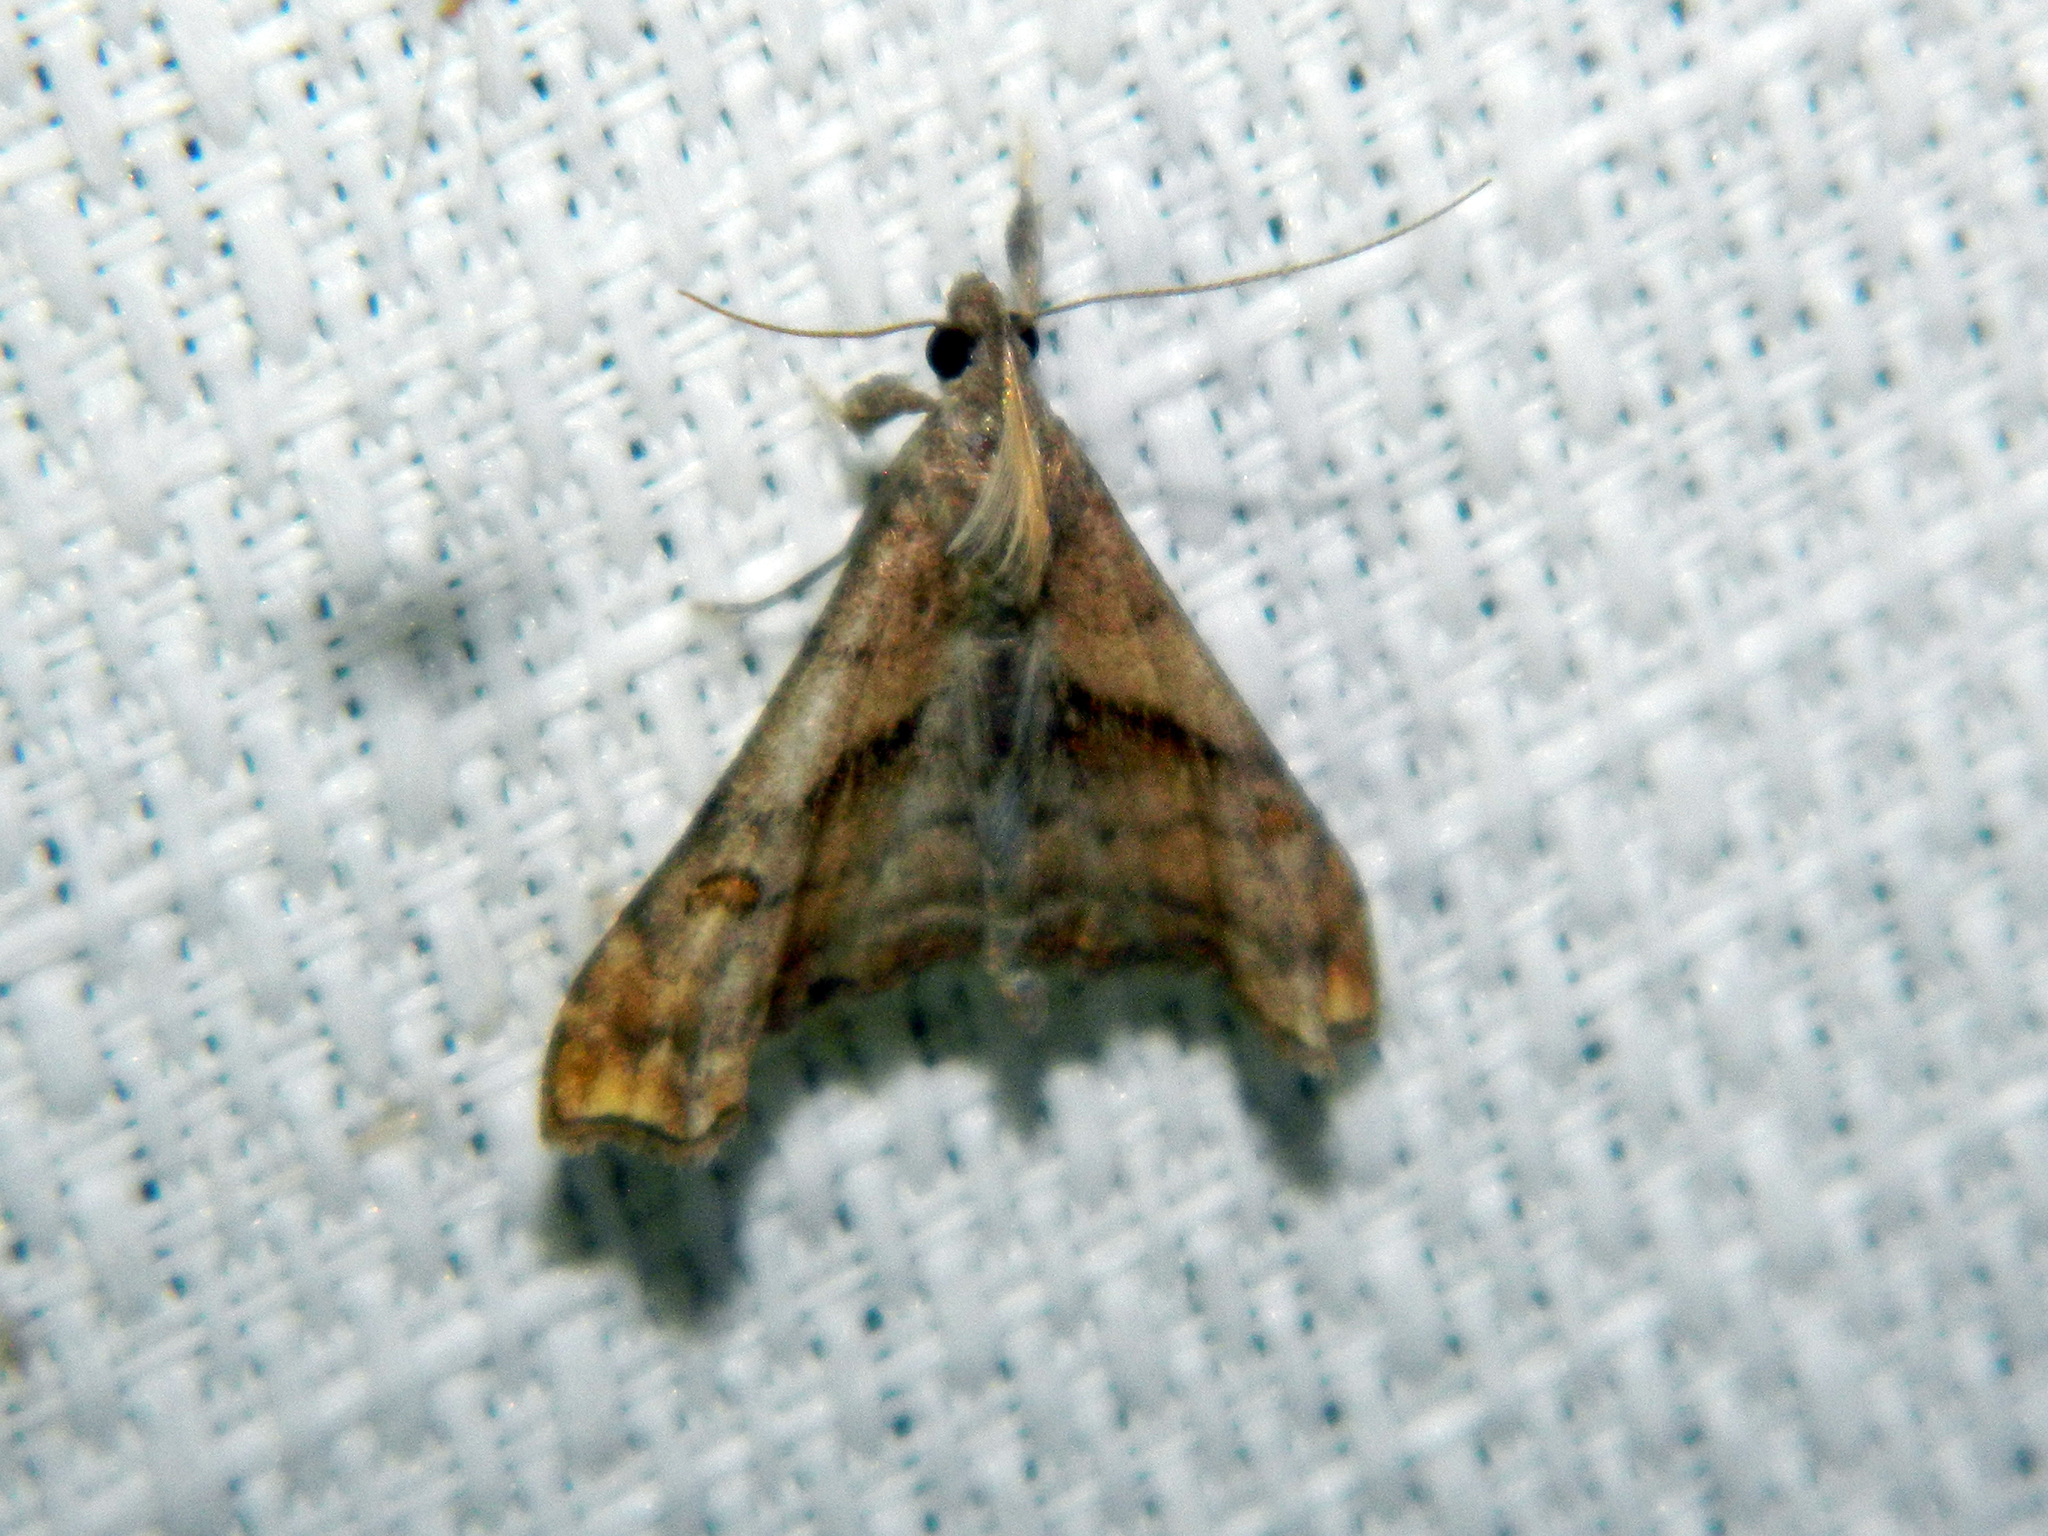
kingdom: Animalia
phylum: Arthropoda
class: Insecta
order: Lepidoptera
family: Erebidae
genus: Palthis
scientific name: Palthis angulalis
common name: Dark-spotted palthis moth
